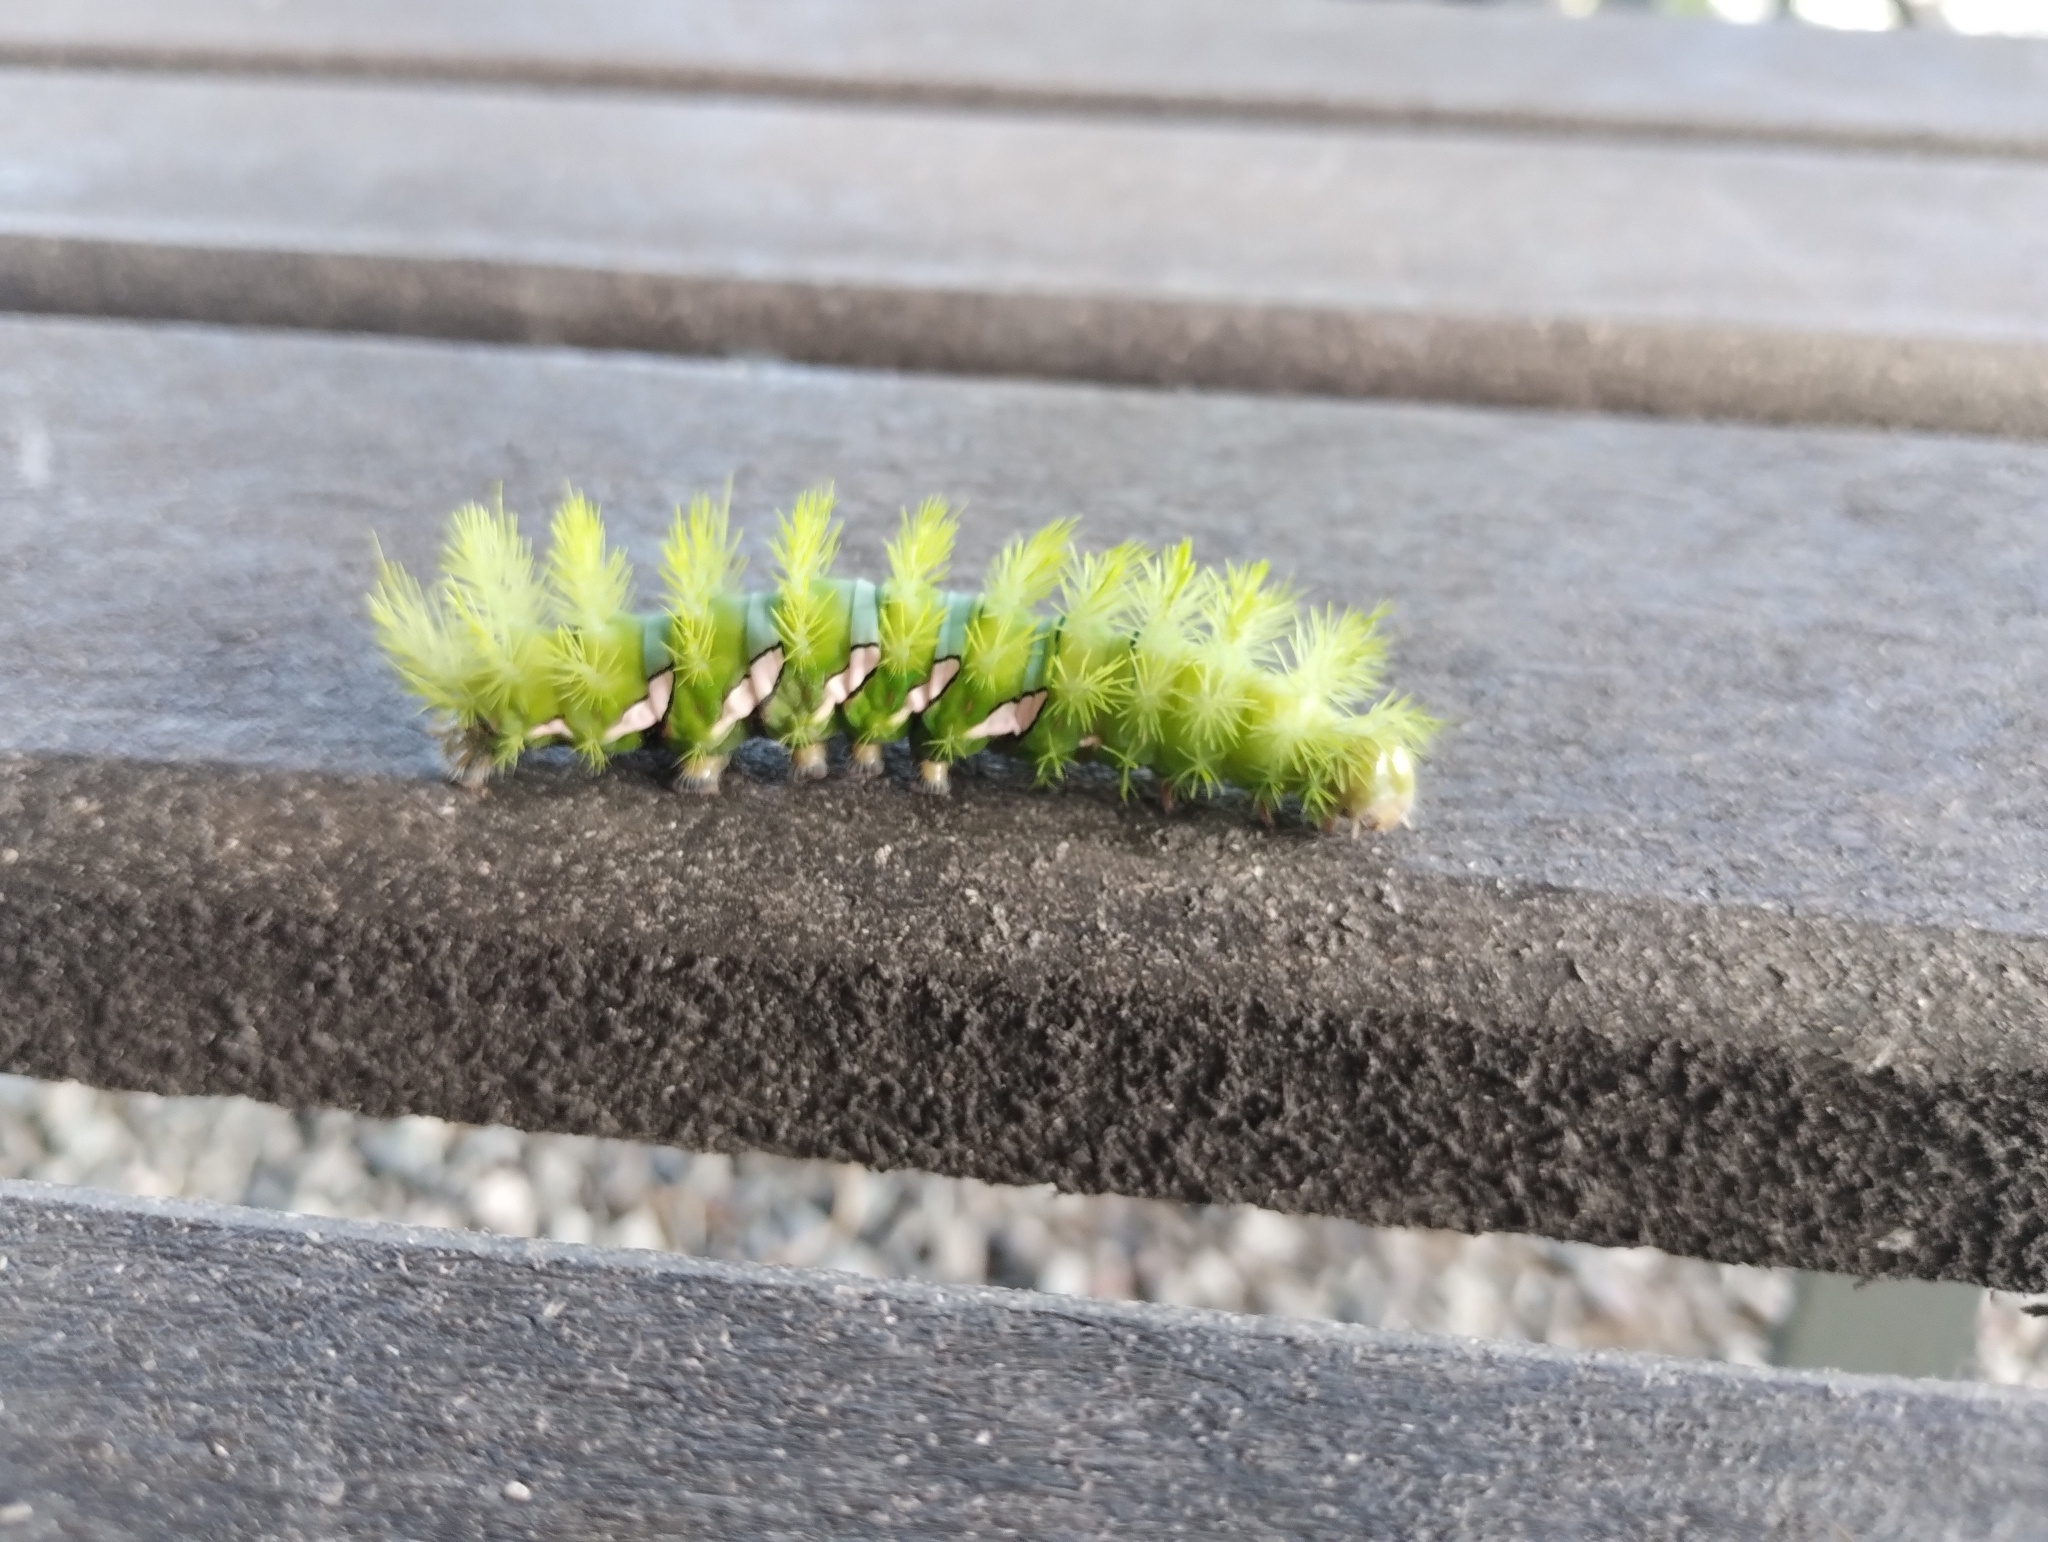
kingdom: Animalia
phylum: Arthropoda
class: Insecta
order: Lepidoptera
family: Saturniidae
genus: Automeris
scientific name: Automeris naranja
